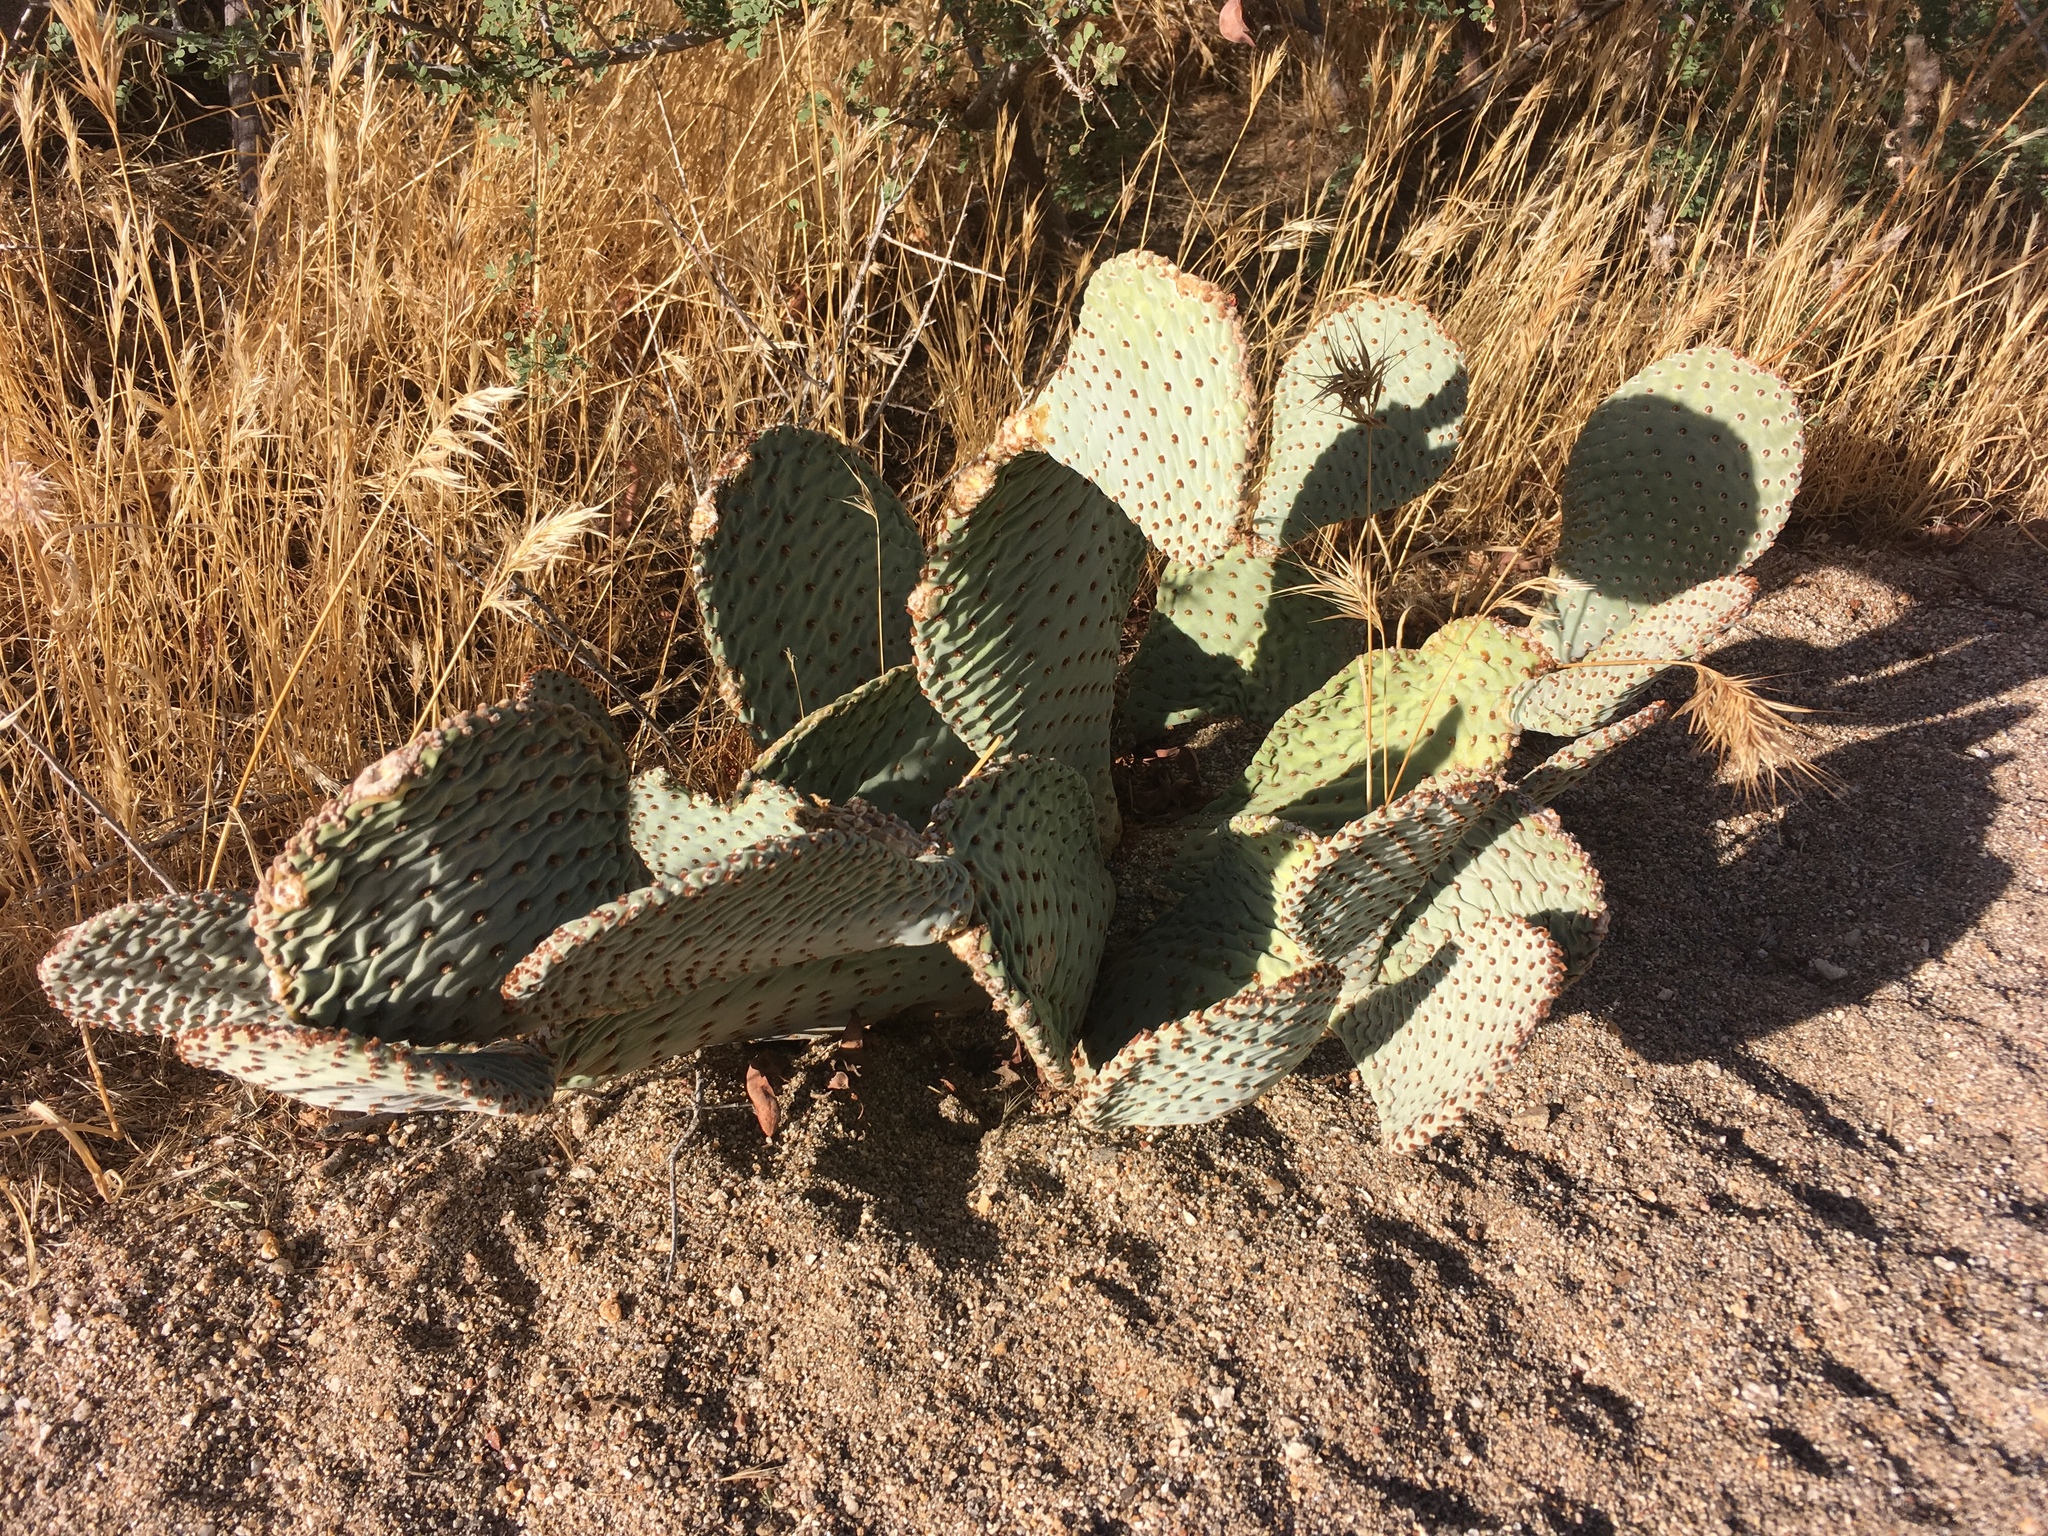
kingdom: Plantae
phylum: Tracheophyta
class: Magnoliopsida
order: Caryophyllales
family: Cactaceae
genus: Opuntia
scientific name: Opuntia basilaris
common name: Beavertail prickly-pear
